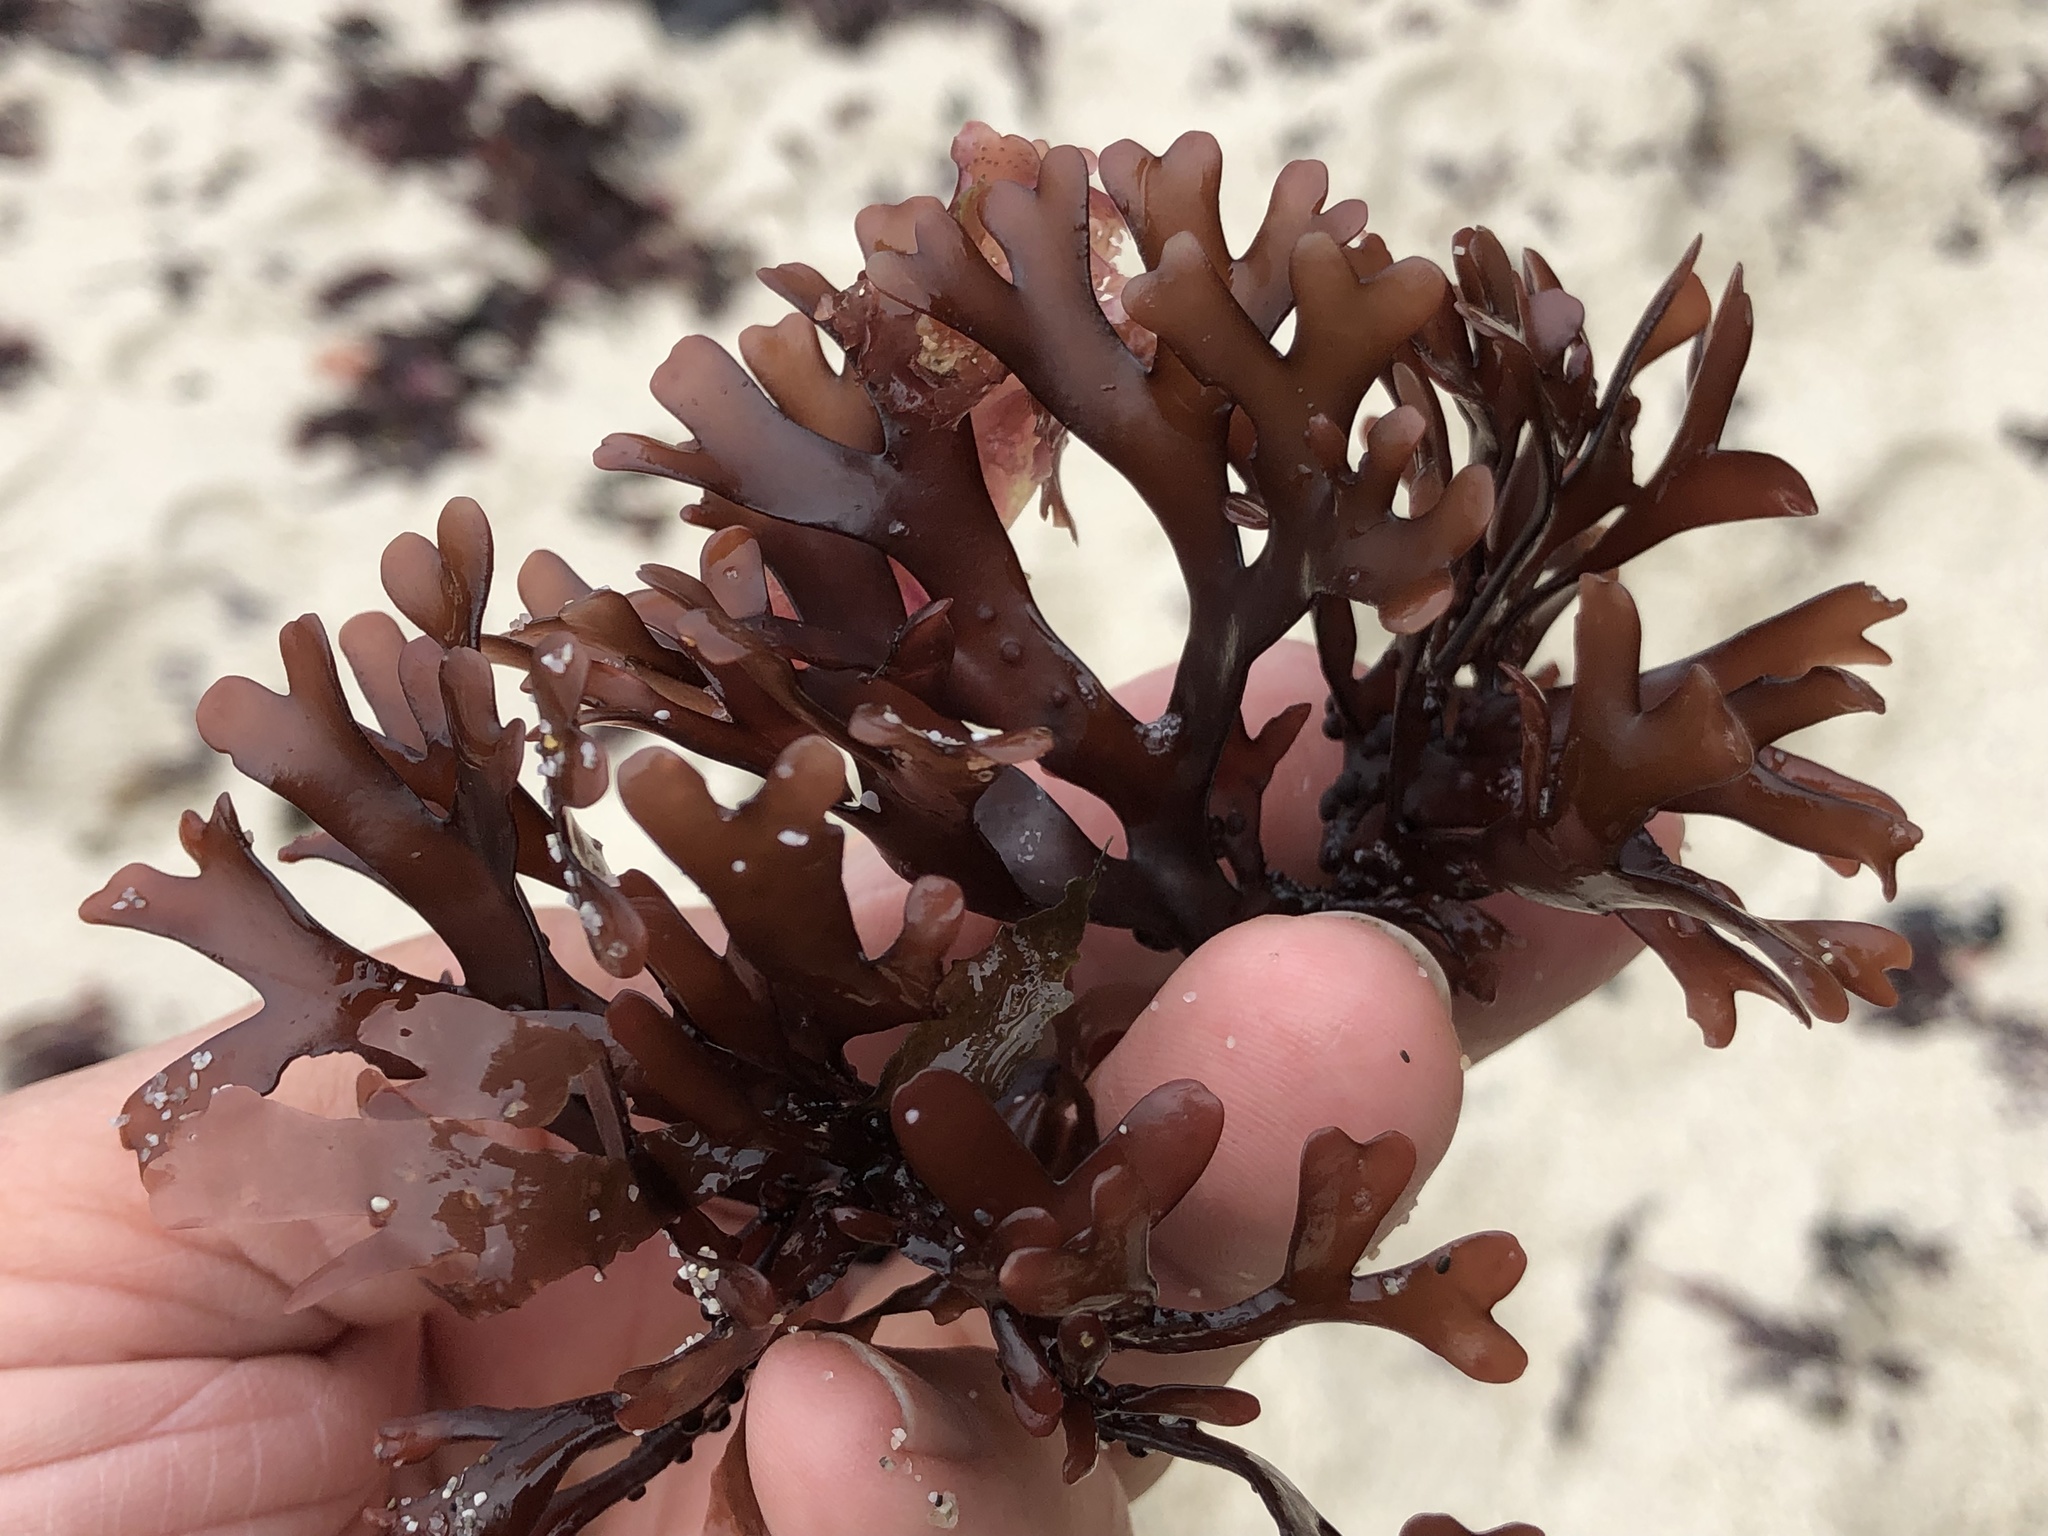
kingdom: Plantae
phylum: Rhodophyta
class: Florideophyceae
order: Gigartinales
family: Phyllophoraceae
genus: Ahnfeltiopsis
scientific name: Ahnfeltiopsis linearis
